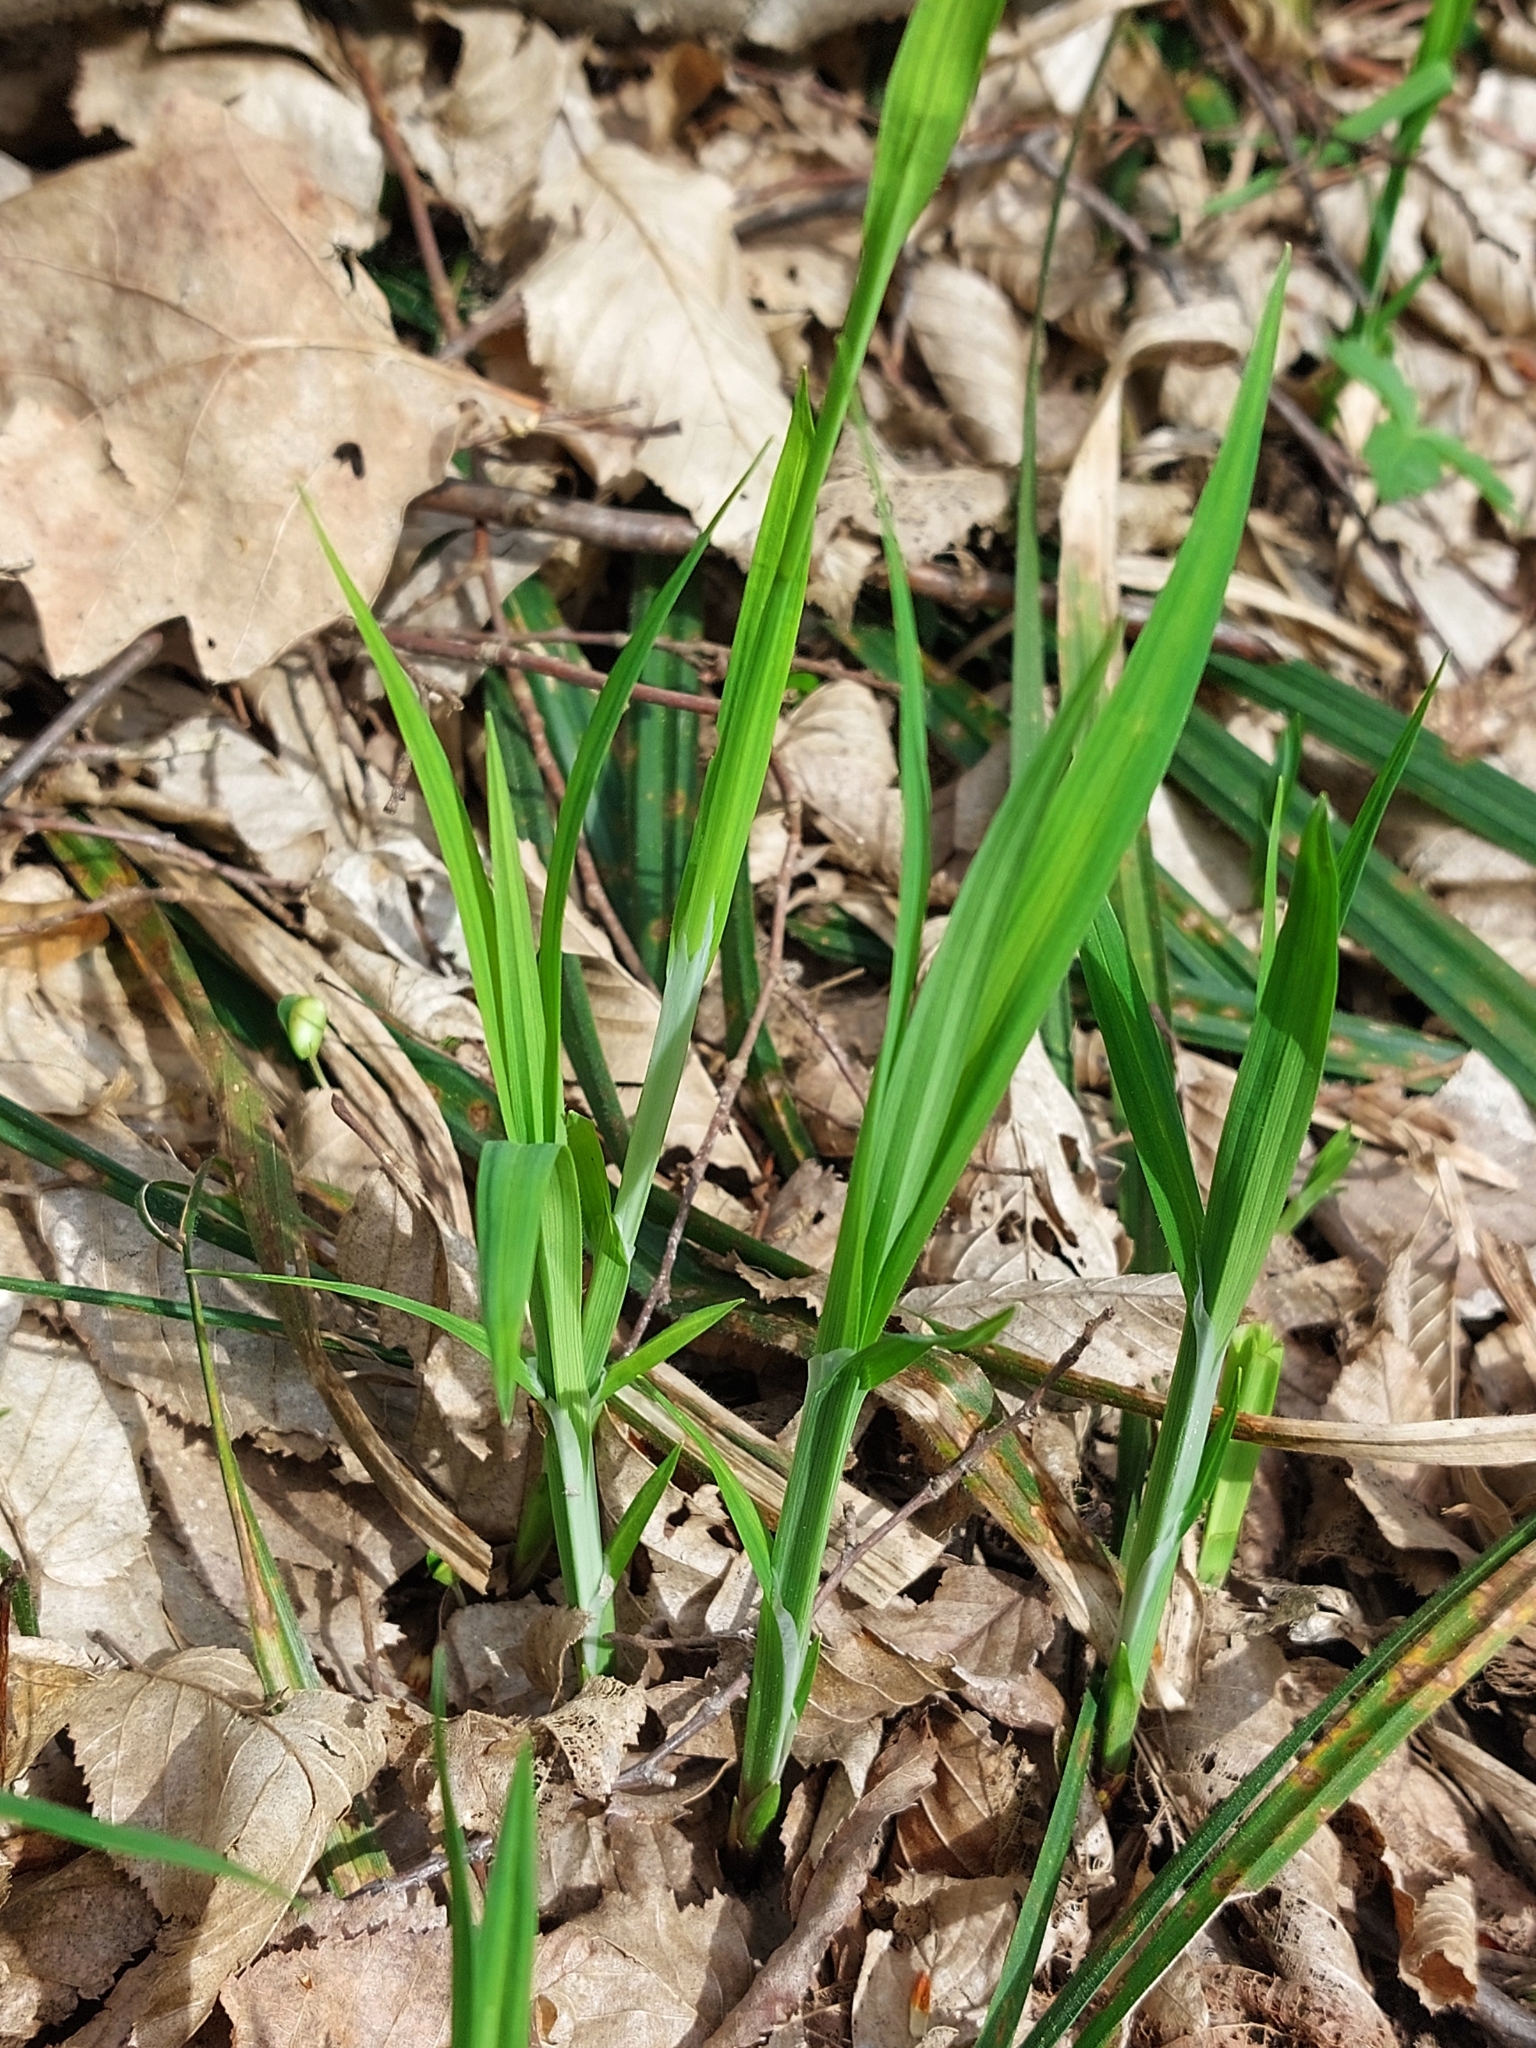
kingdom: Plantae
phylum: Tracheophyta
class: Liliopsida
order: Poales
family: Cyperaceae
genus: Carex
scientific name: Carex pilosa
